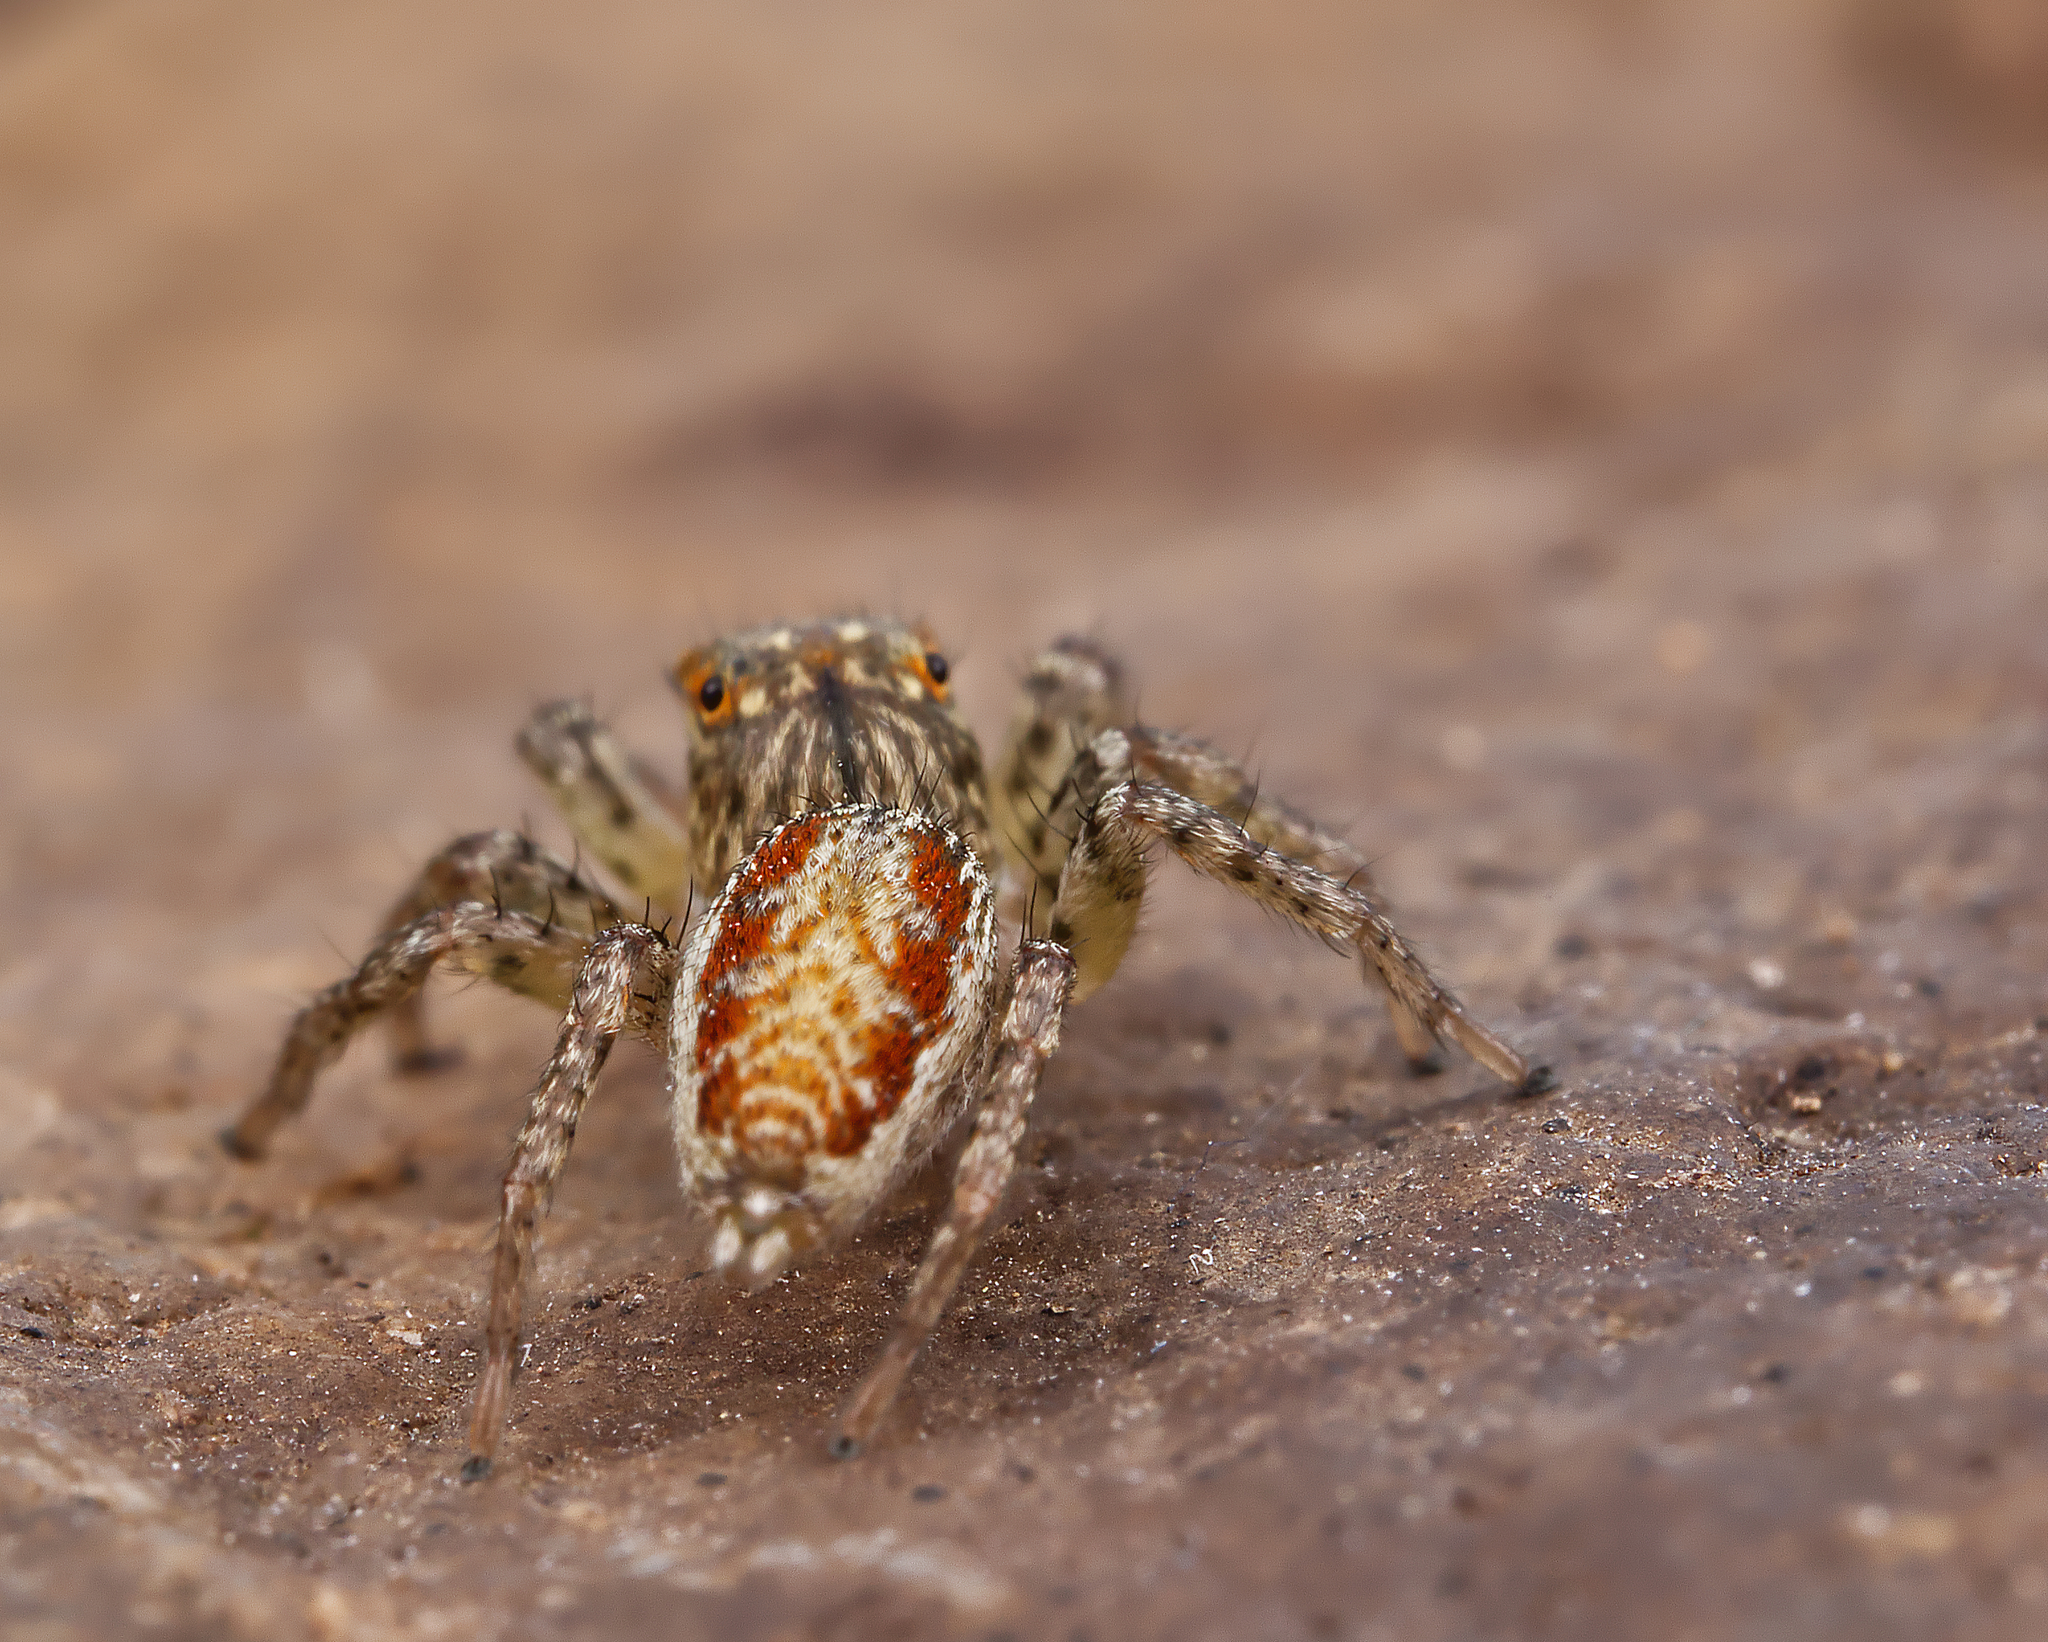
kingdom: Animalia
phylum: Arthropoda
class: Arachnida
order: Araneae
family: Salticidae
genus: Maevia
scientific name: Maevia inclemens
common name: Dimorphic jumper
